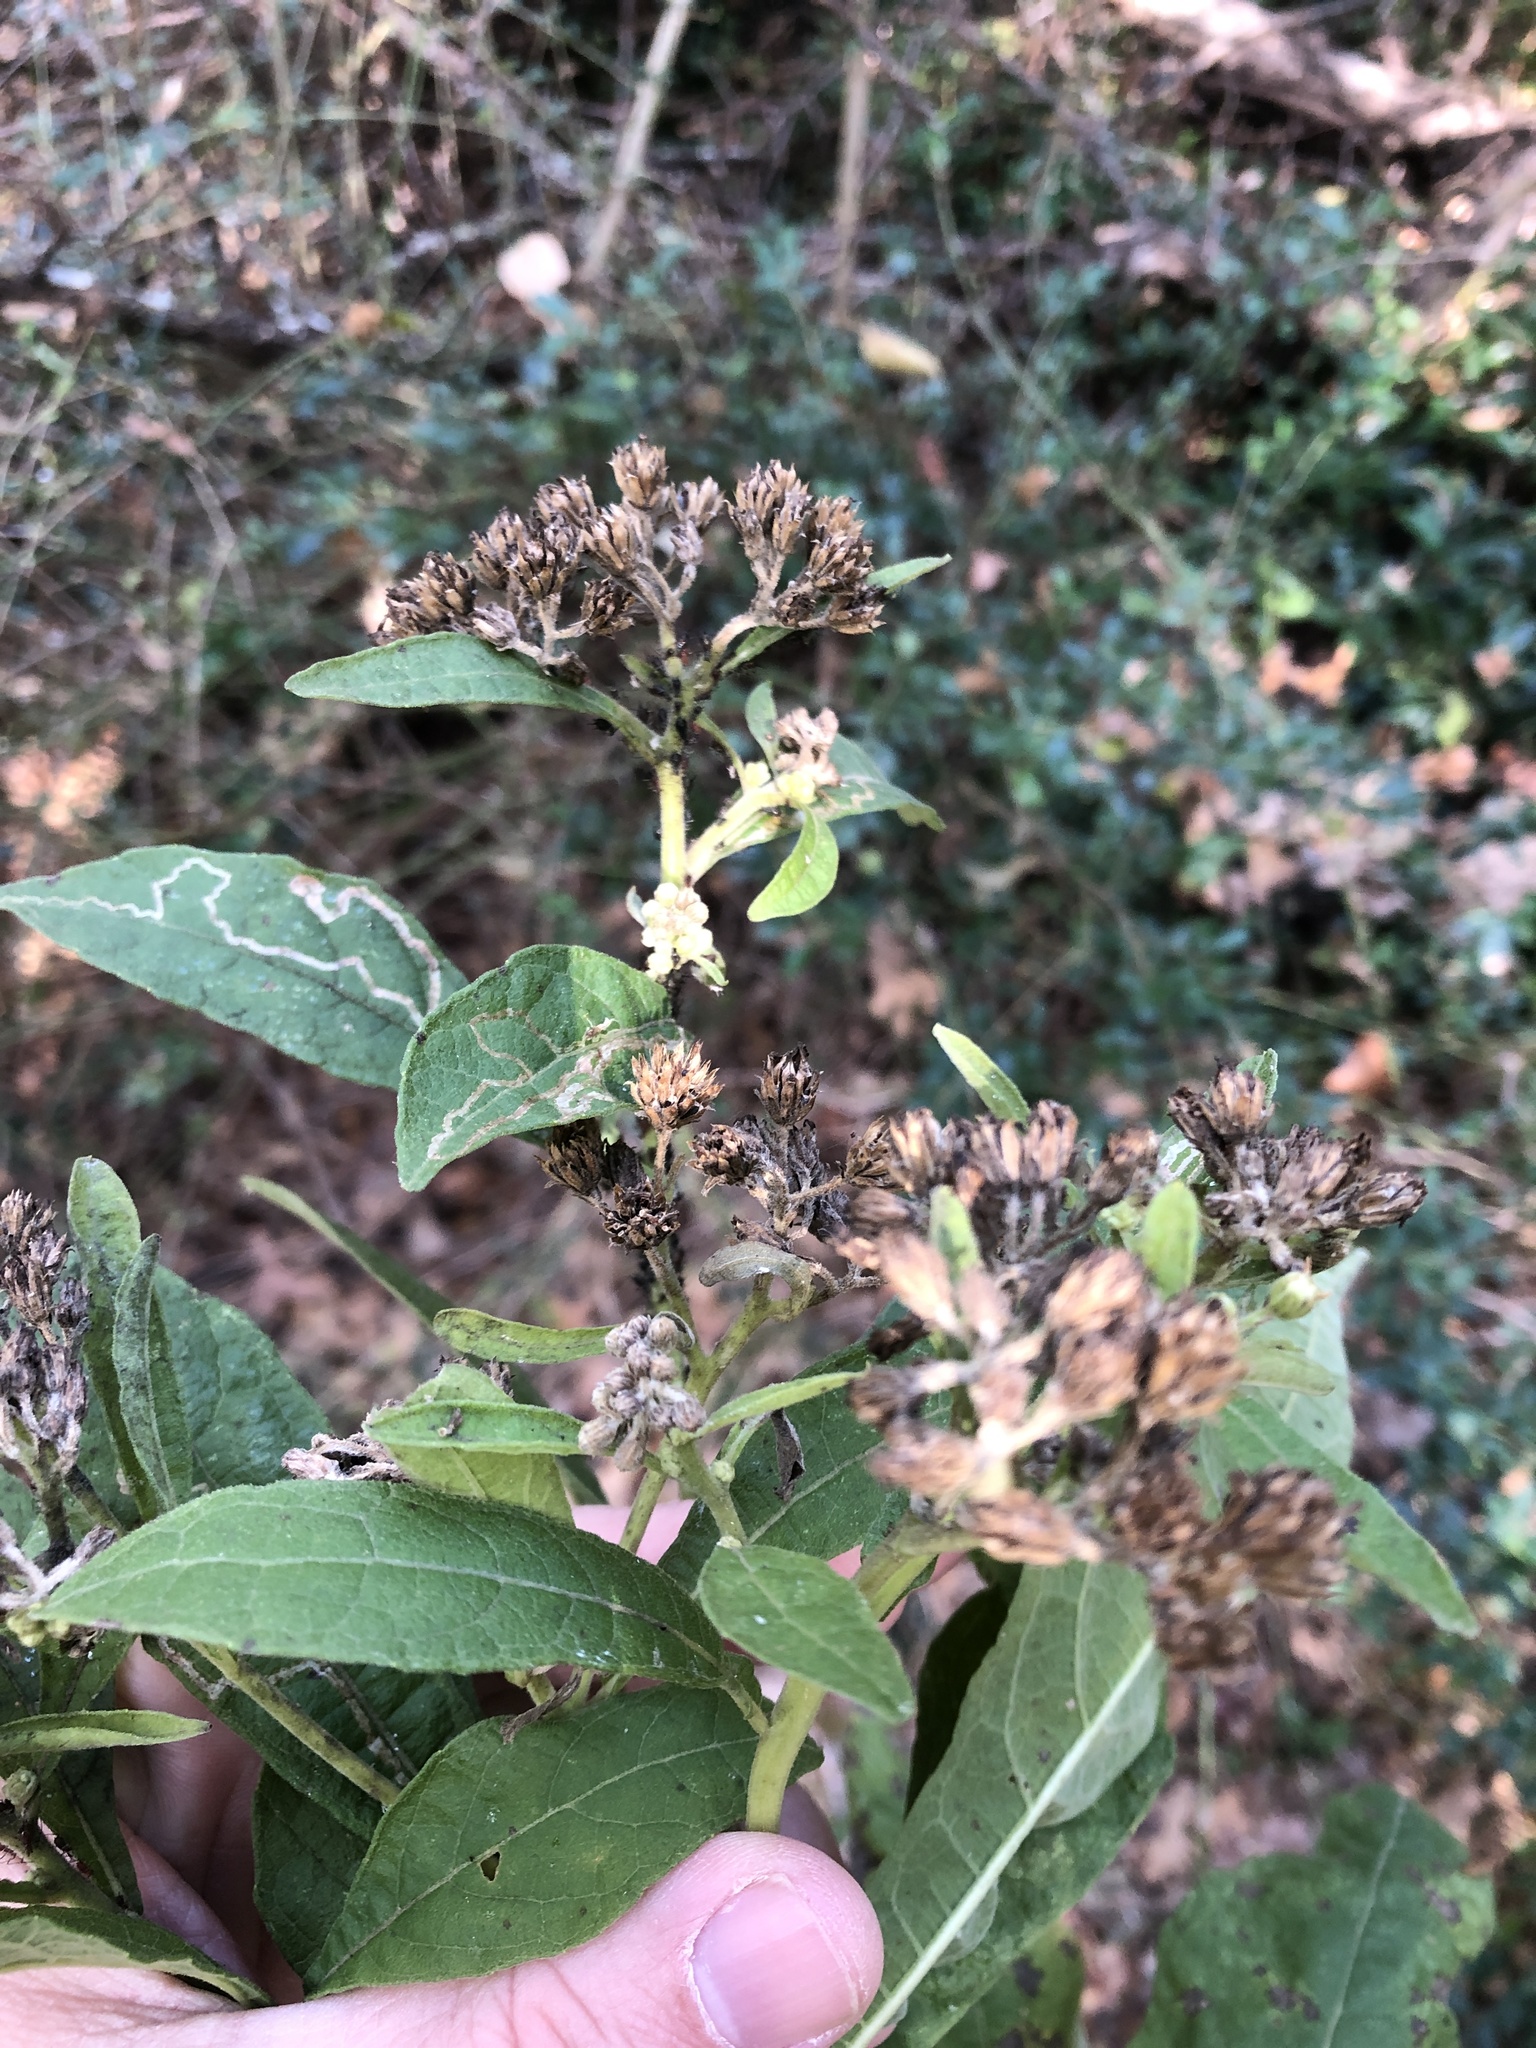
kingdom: Plantae
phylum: Tracheophyta
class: Magnoliopsida
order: Asterales
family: Asteraceae
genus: Verbesina
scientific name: Verbesina virginica
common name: Frostweed
